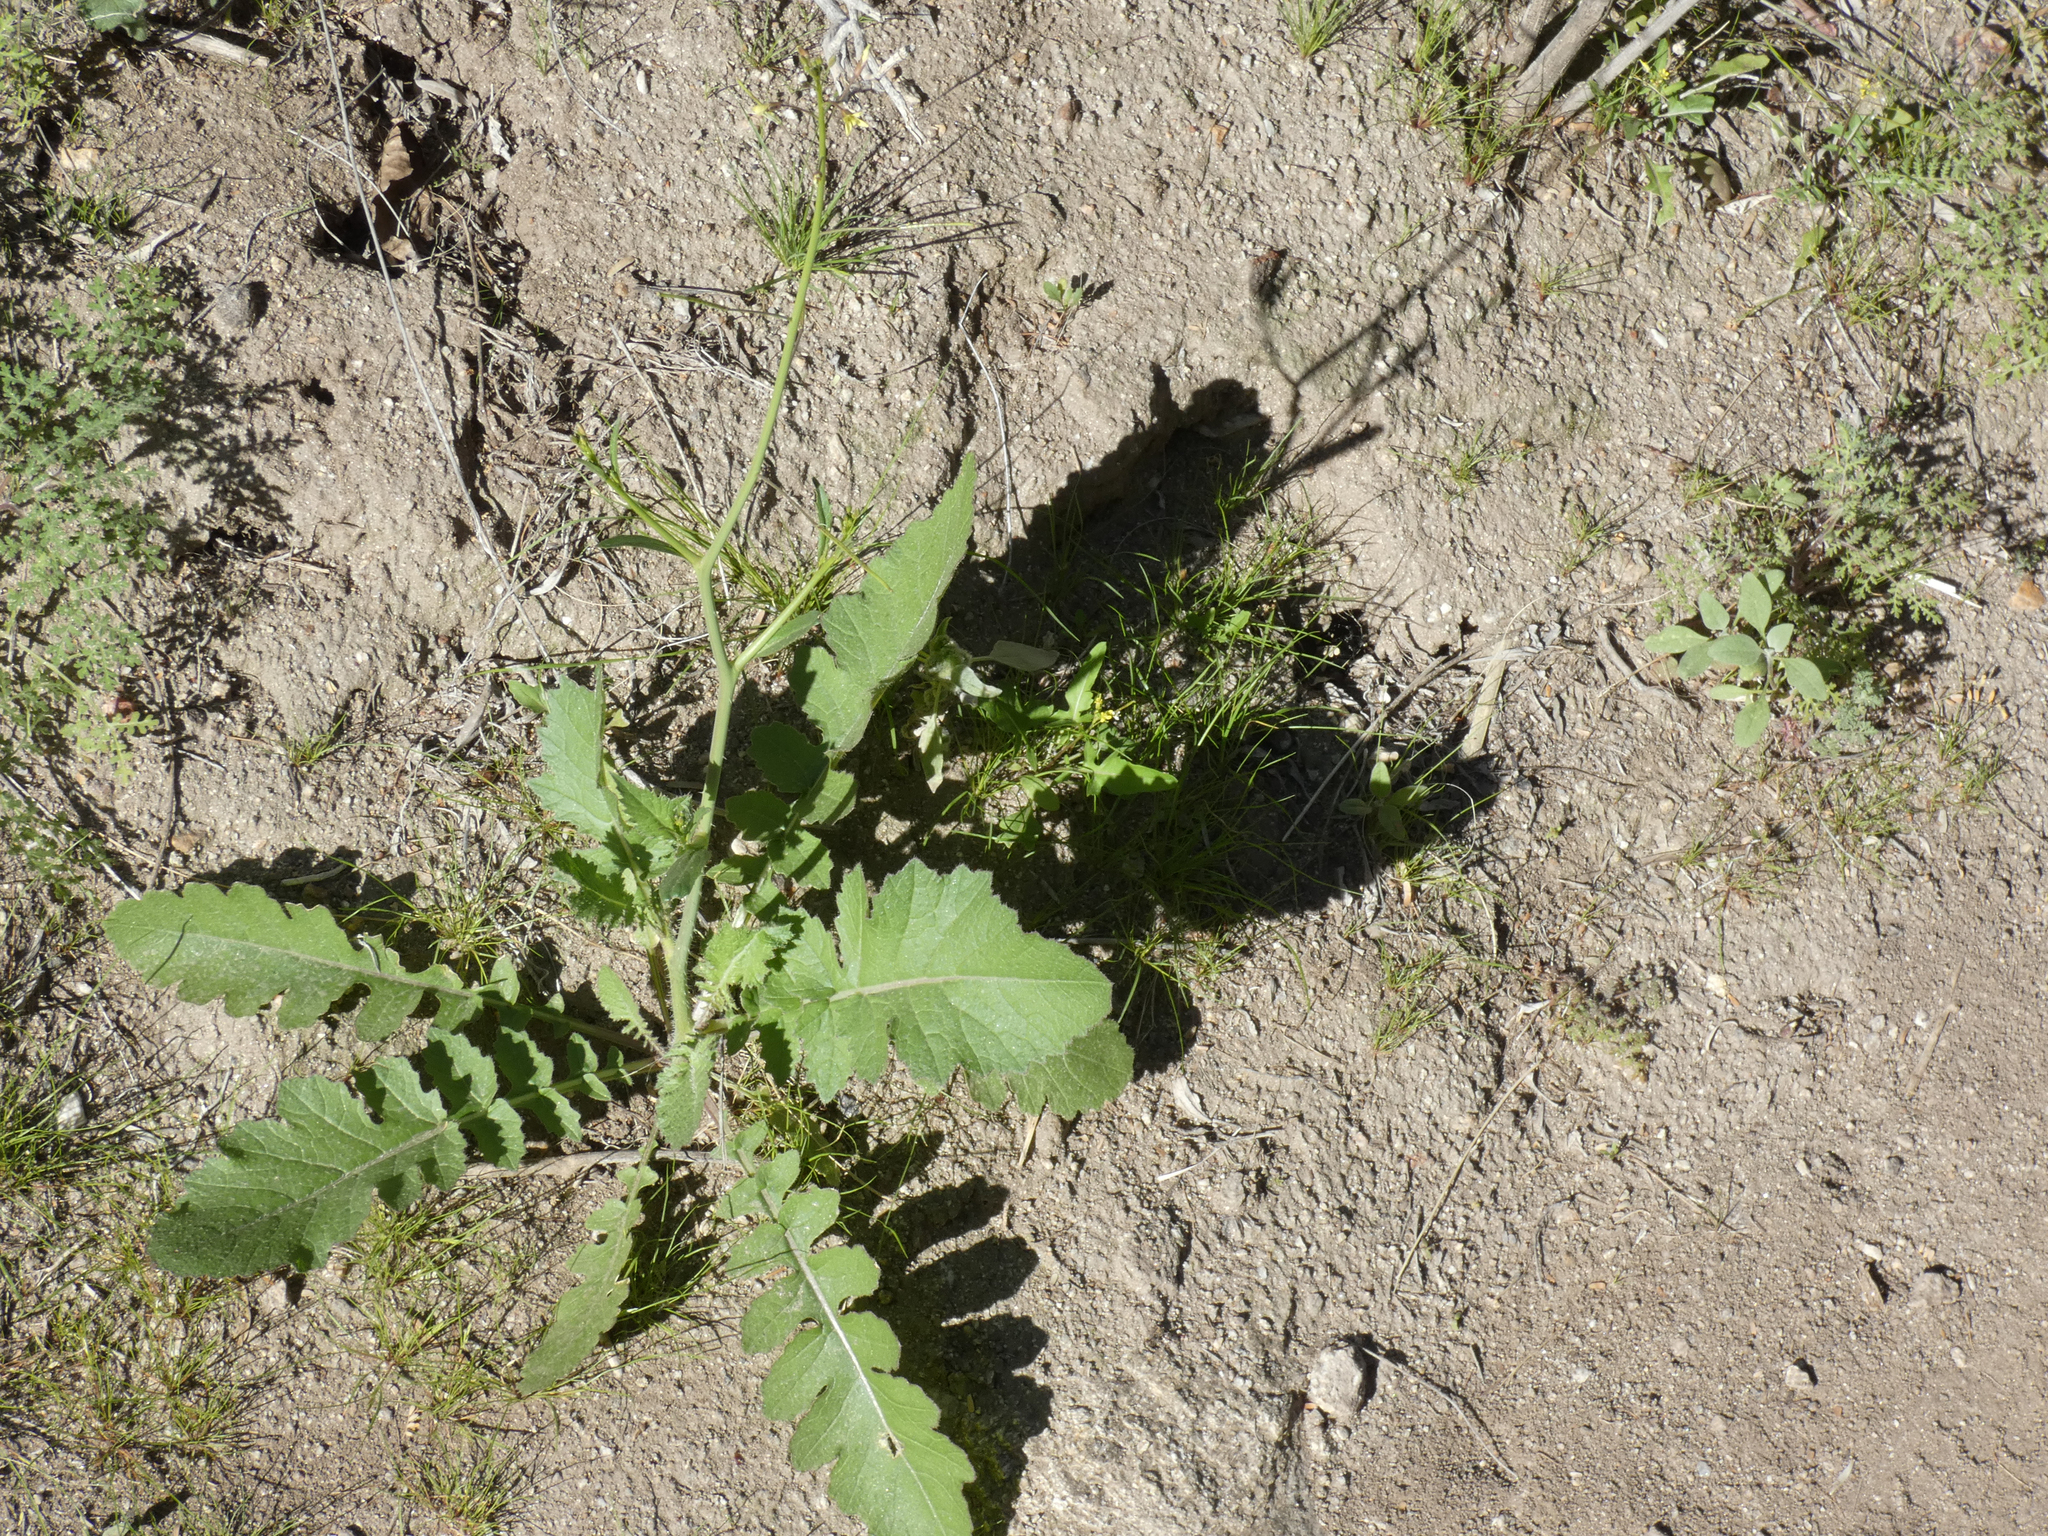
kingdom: Plantae
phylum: Tracheophyta
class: Magnoliopsida
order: Brassicales
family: Brassicaceae
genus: Brassica
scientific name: Brassica tournefortii
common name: Pale cabbage
